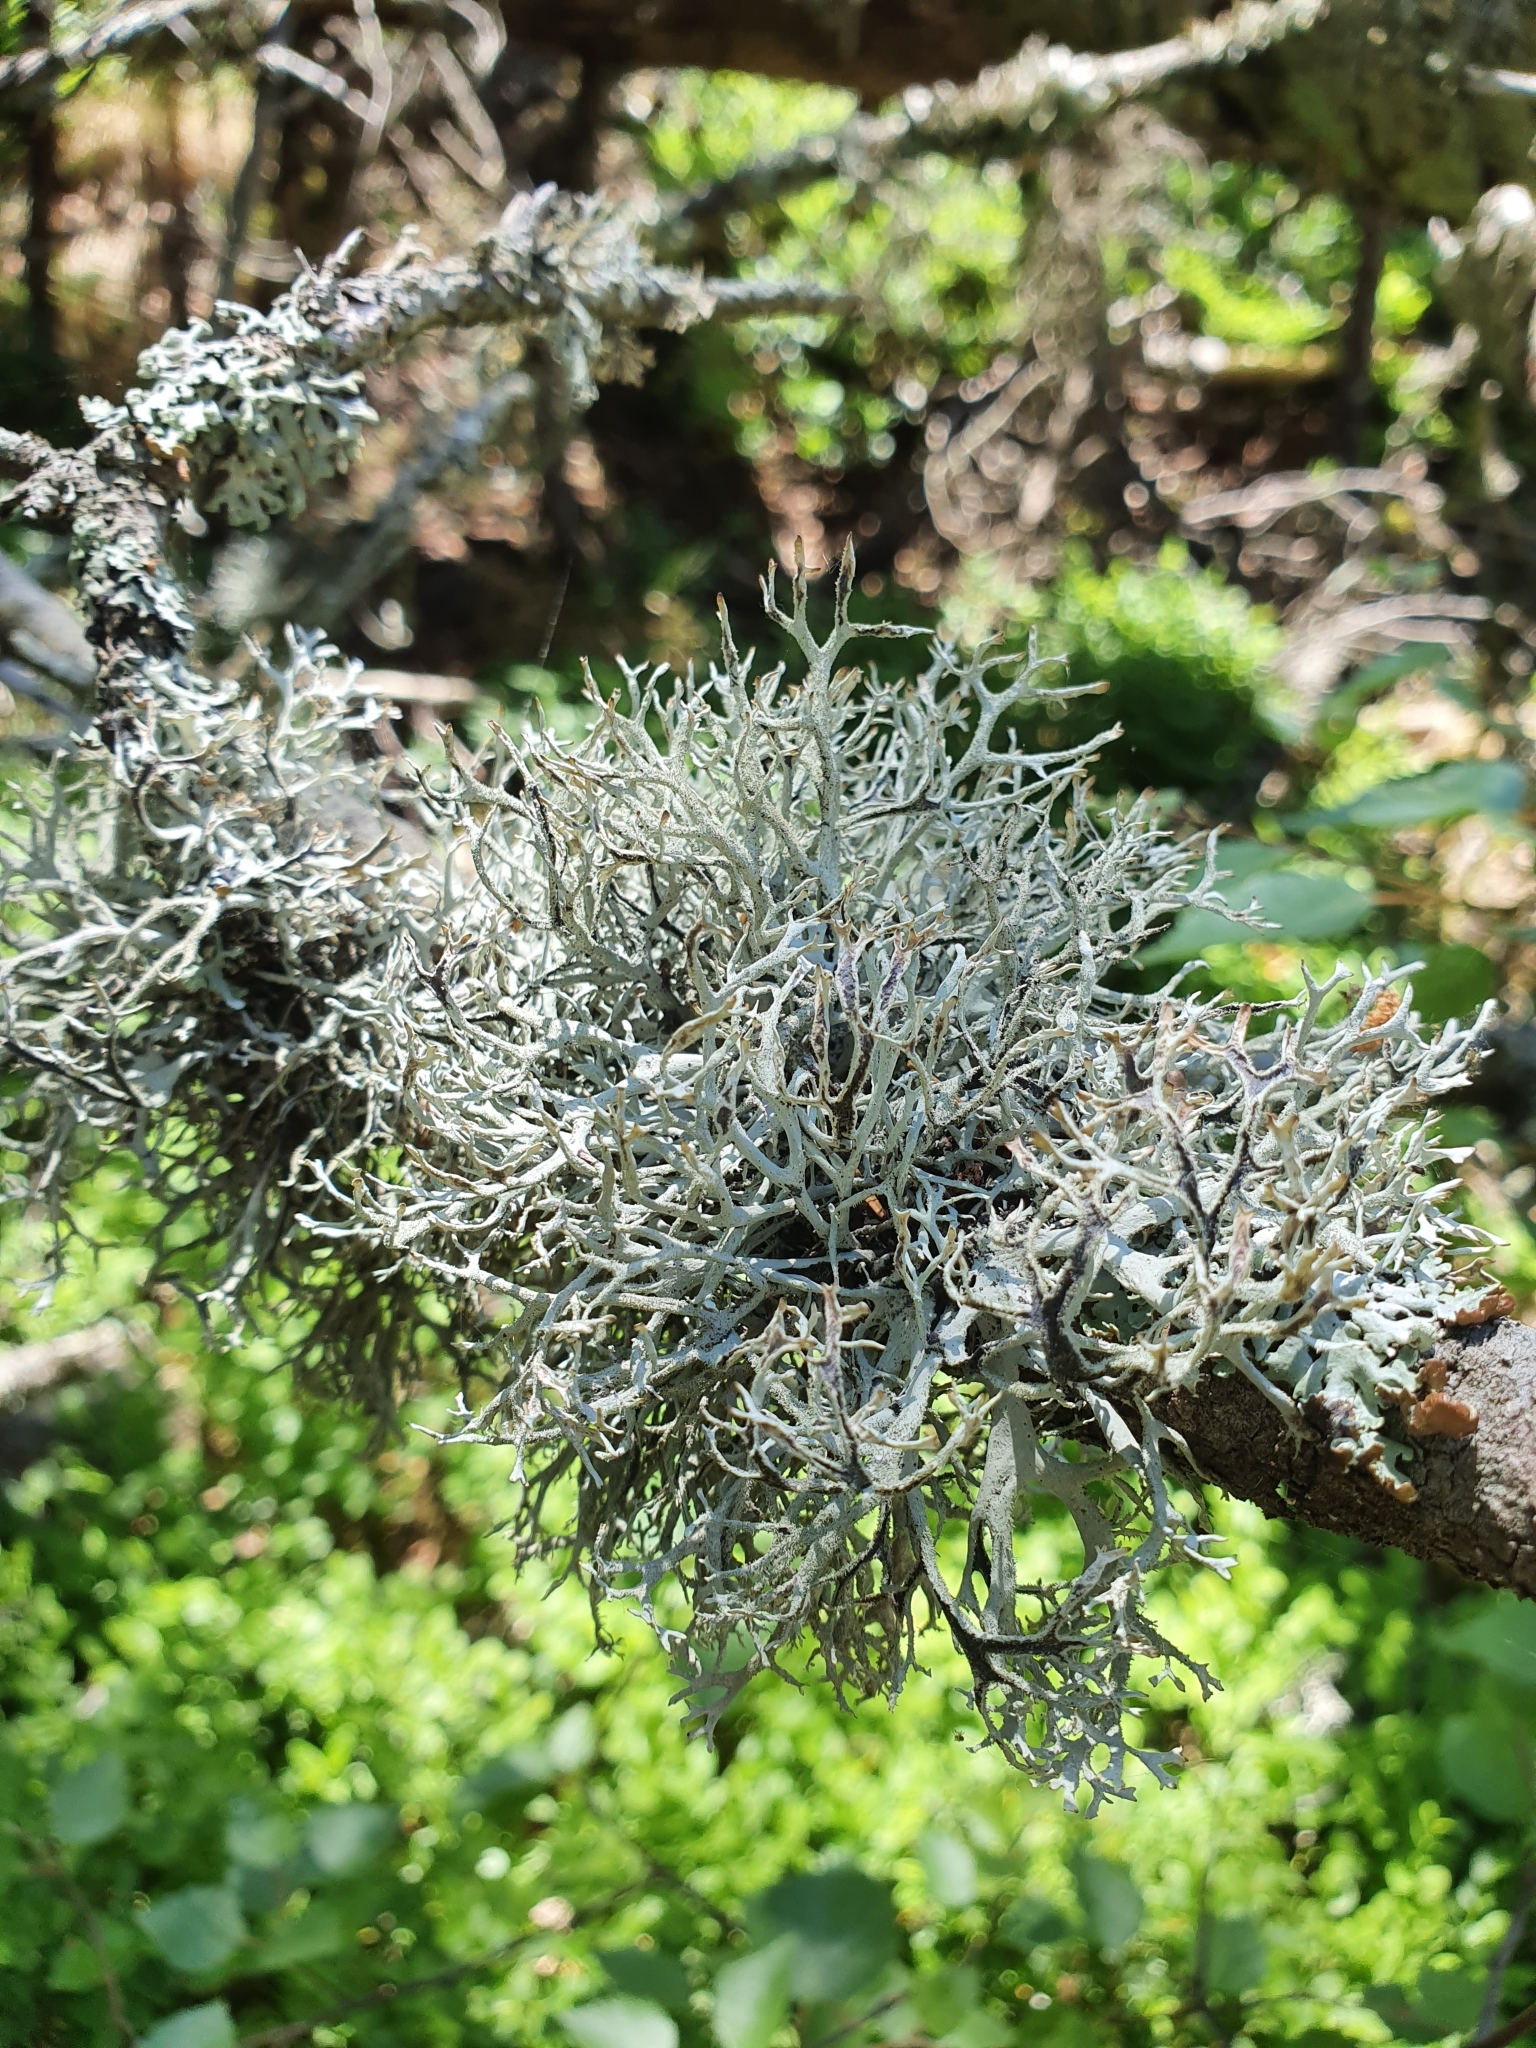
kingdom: Fungi
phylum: Ascomycota
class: Lecanoromycetes
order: Lecanorales
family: Parmeliaceae
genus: Pseudevernia
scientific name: Pseudevernia furfuracea
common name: Tree moss
